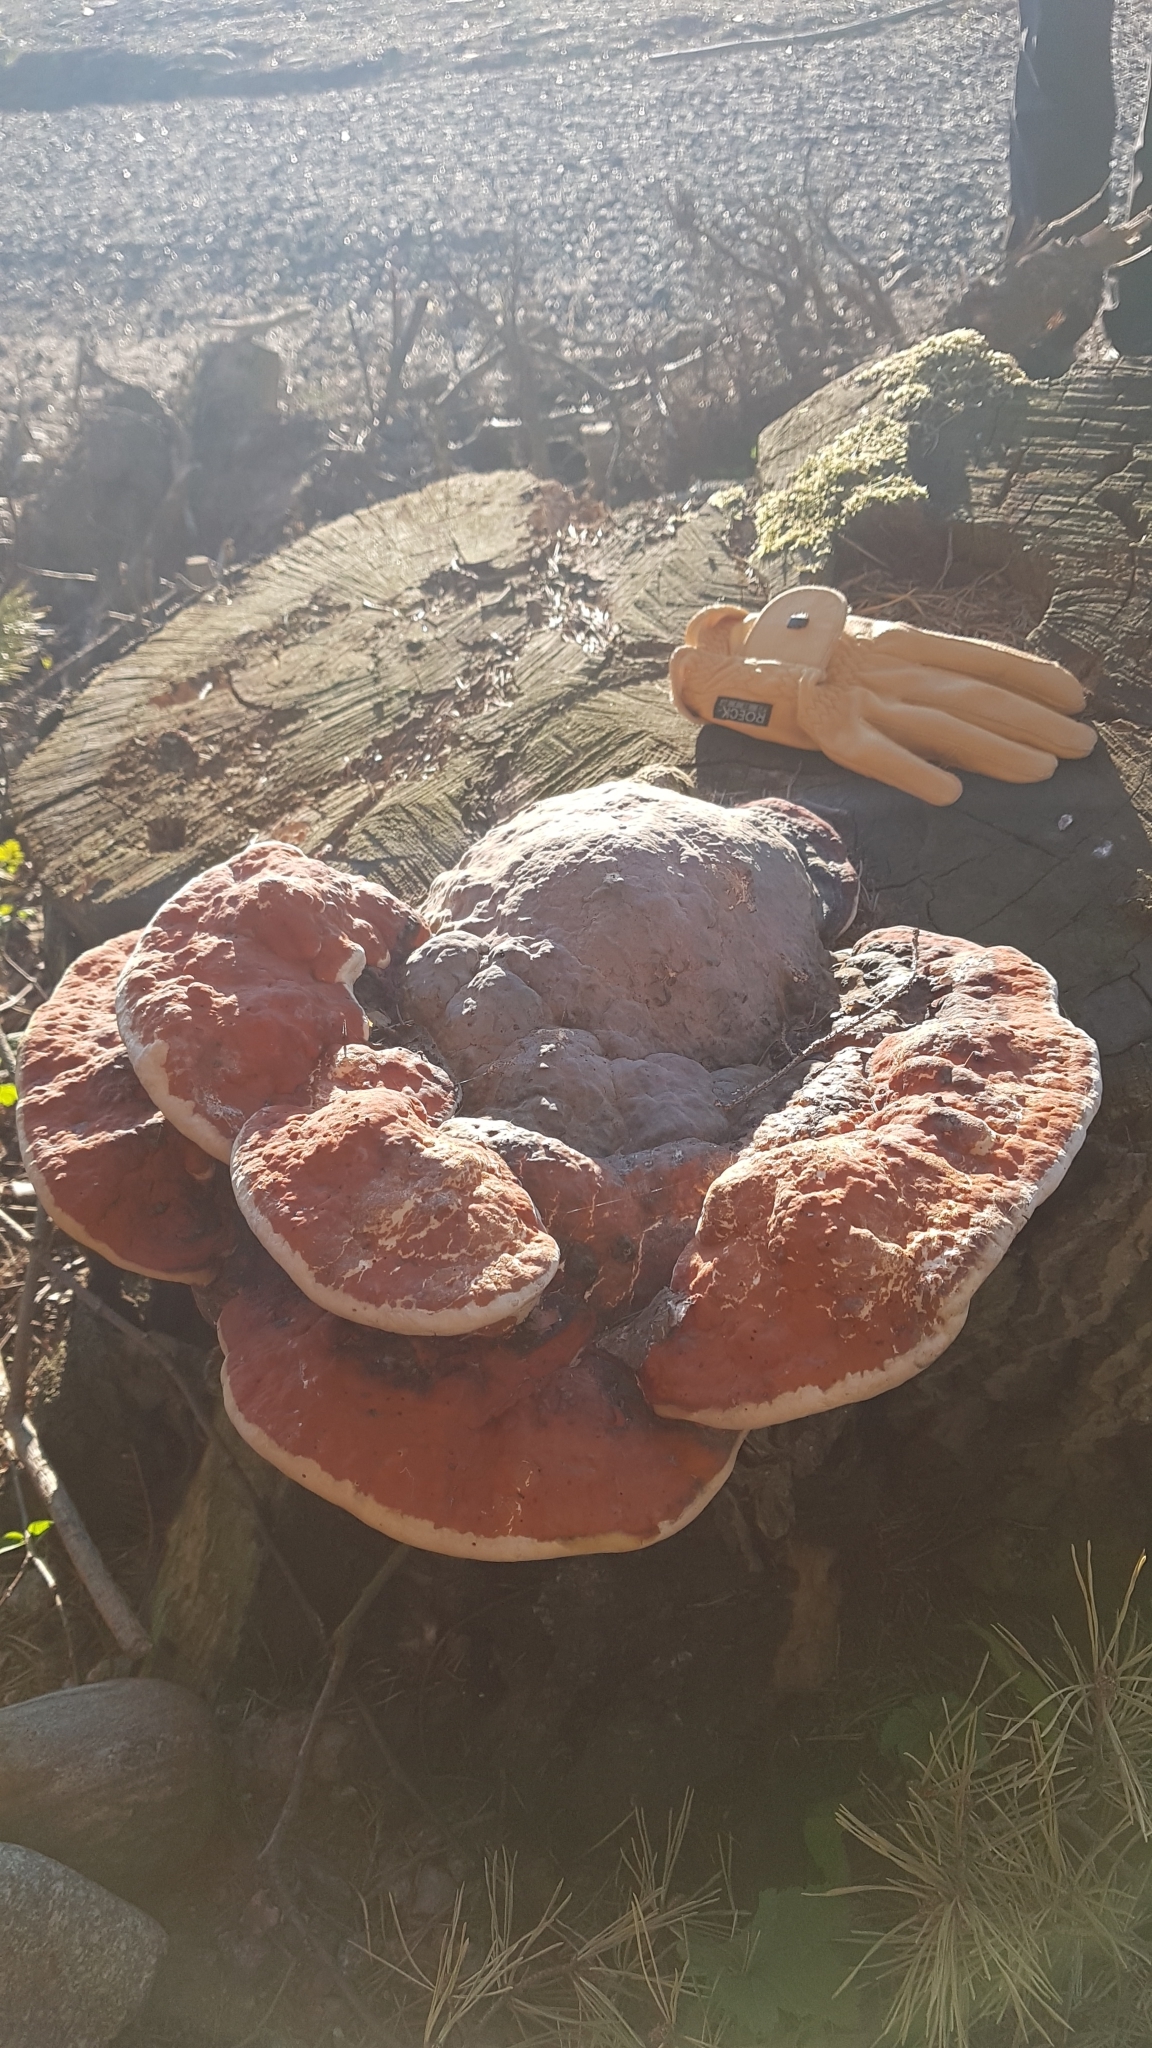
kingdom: Fungi
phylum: Basidiomycota
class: Agaricomycetes
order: Polyporales
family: Fomitopsidaceae
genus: Fomitopsis
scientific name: Fomitopsis pinicola
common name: Red-belted bracket
